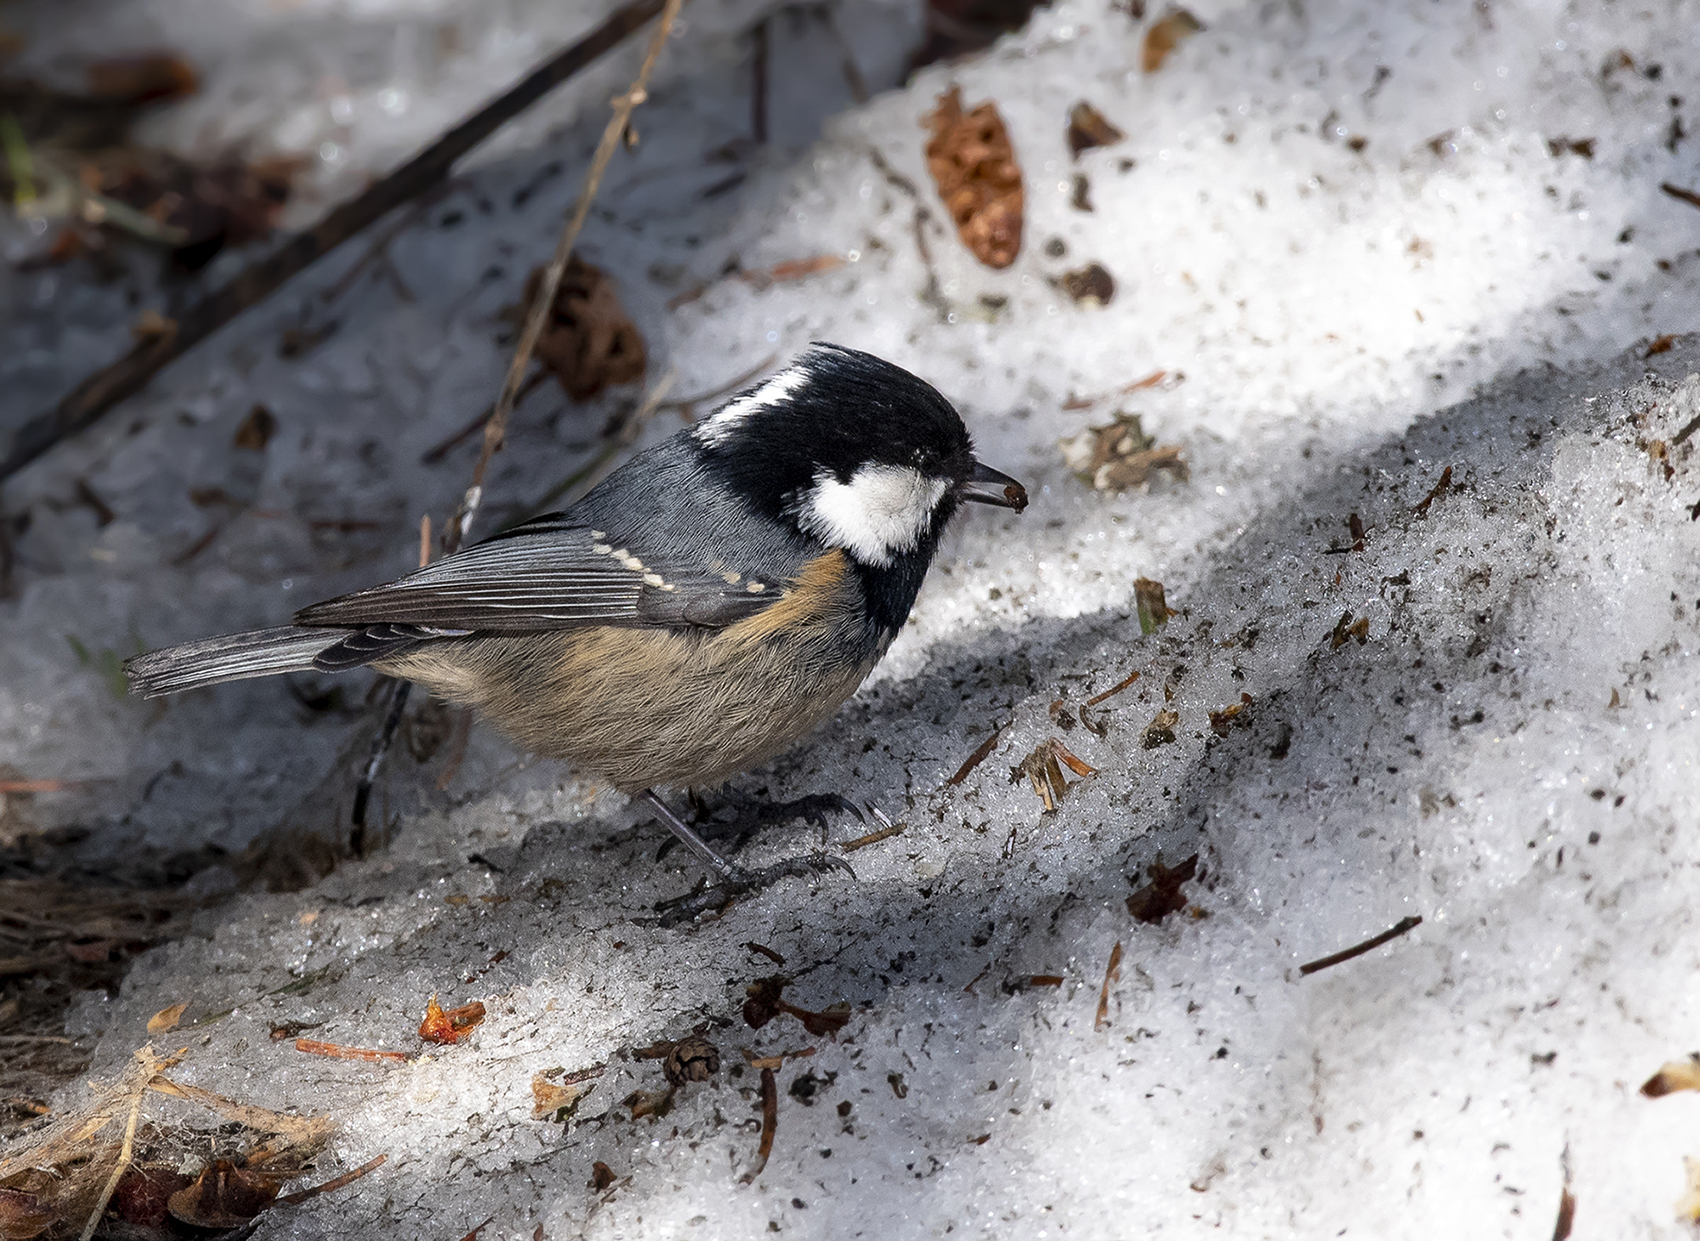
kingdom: Animalia
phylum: Chordata
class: Aves
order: Passeriformes
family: Paridae
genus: Periparus
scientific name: Periparus ater
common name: Coal tit
